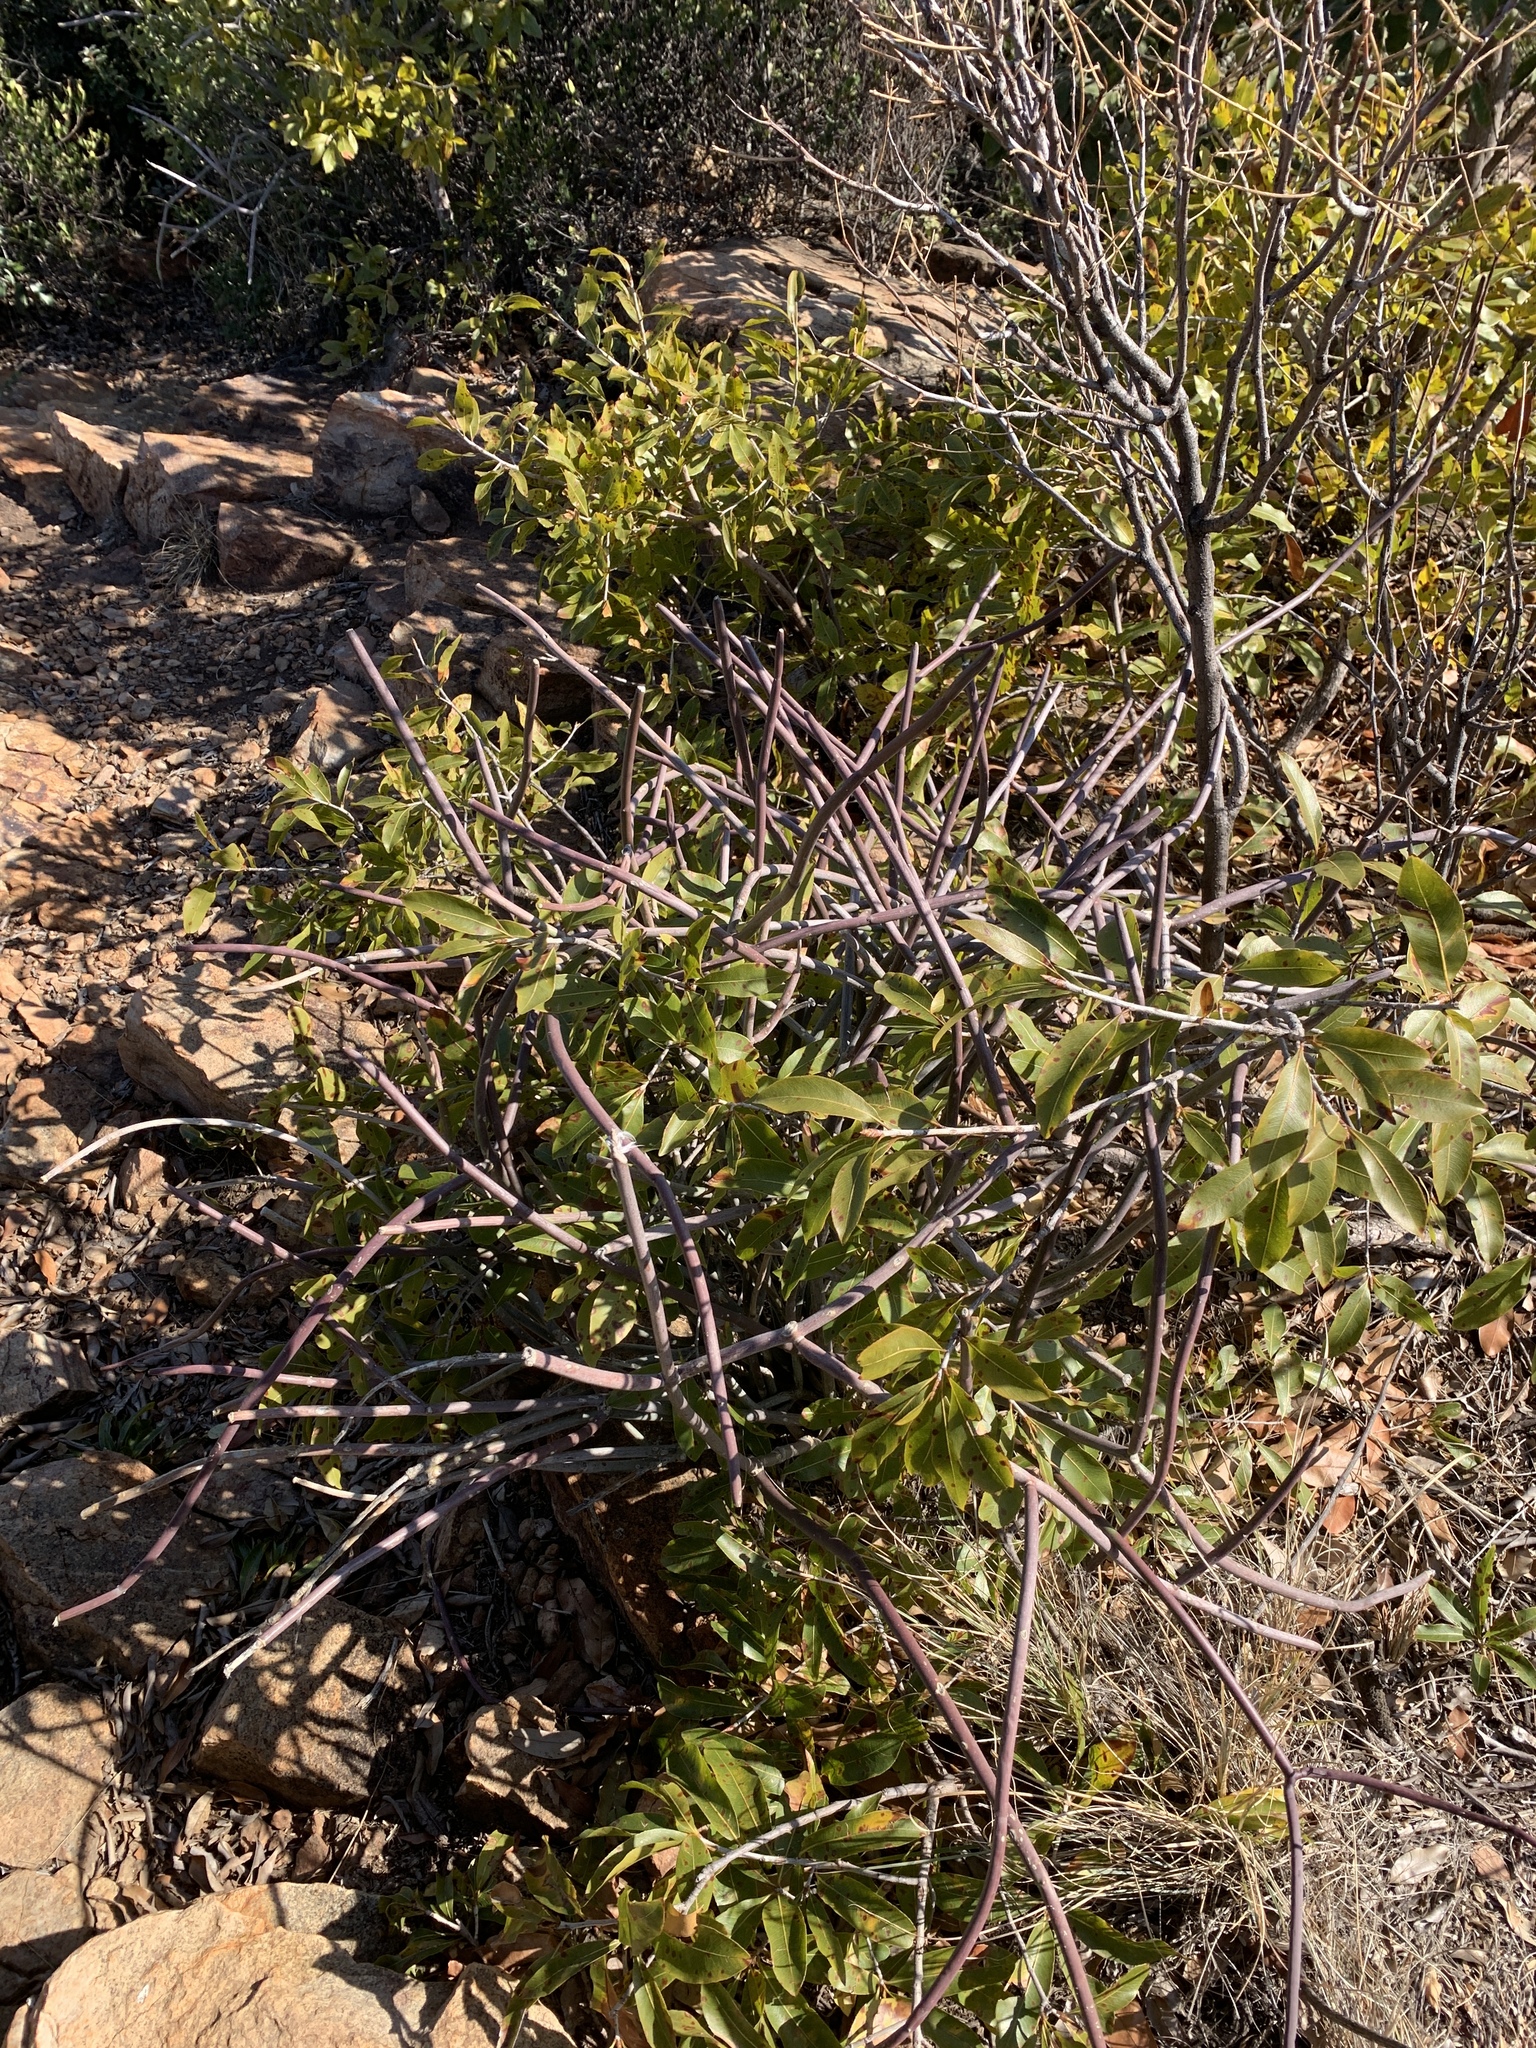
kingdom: Plantae
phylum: Tracheophyta
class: Magnoliopsida
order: Gentianales
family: Apocynaceae
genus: Cynanchum
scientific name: Cynanchum viminale
